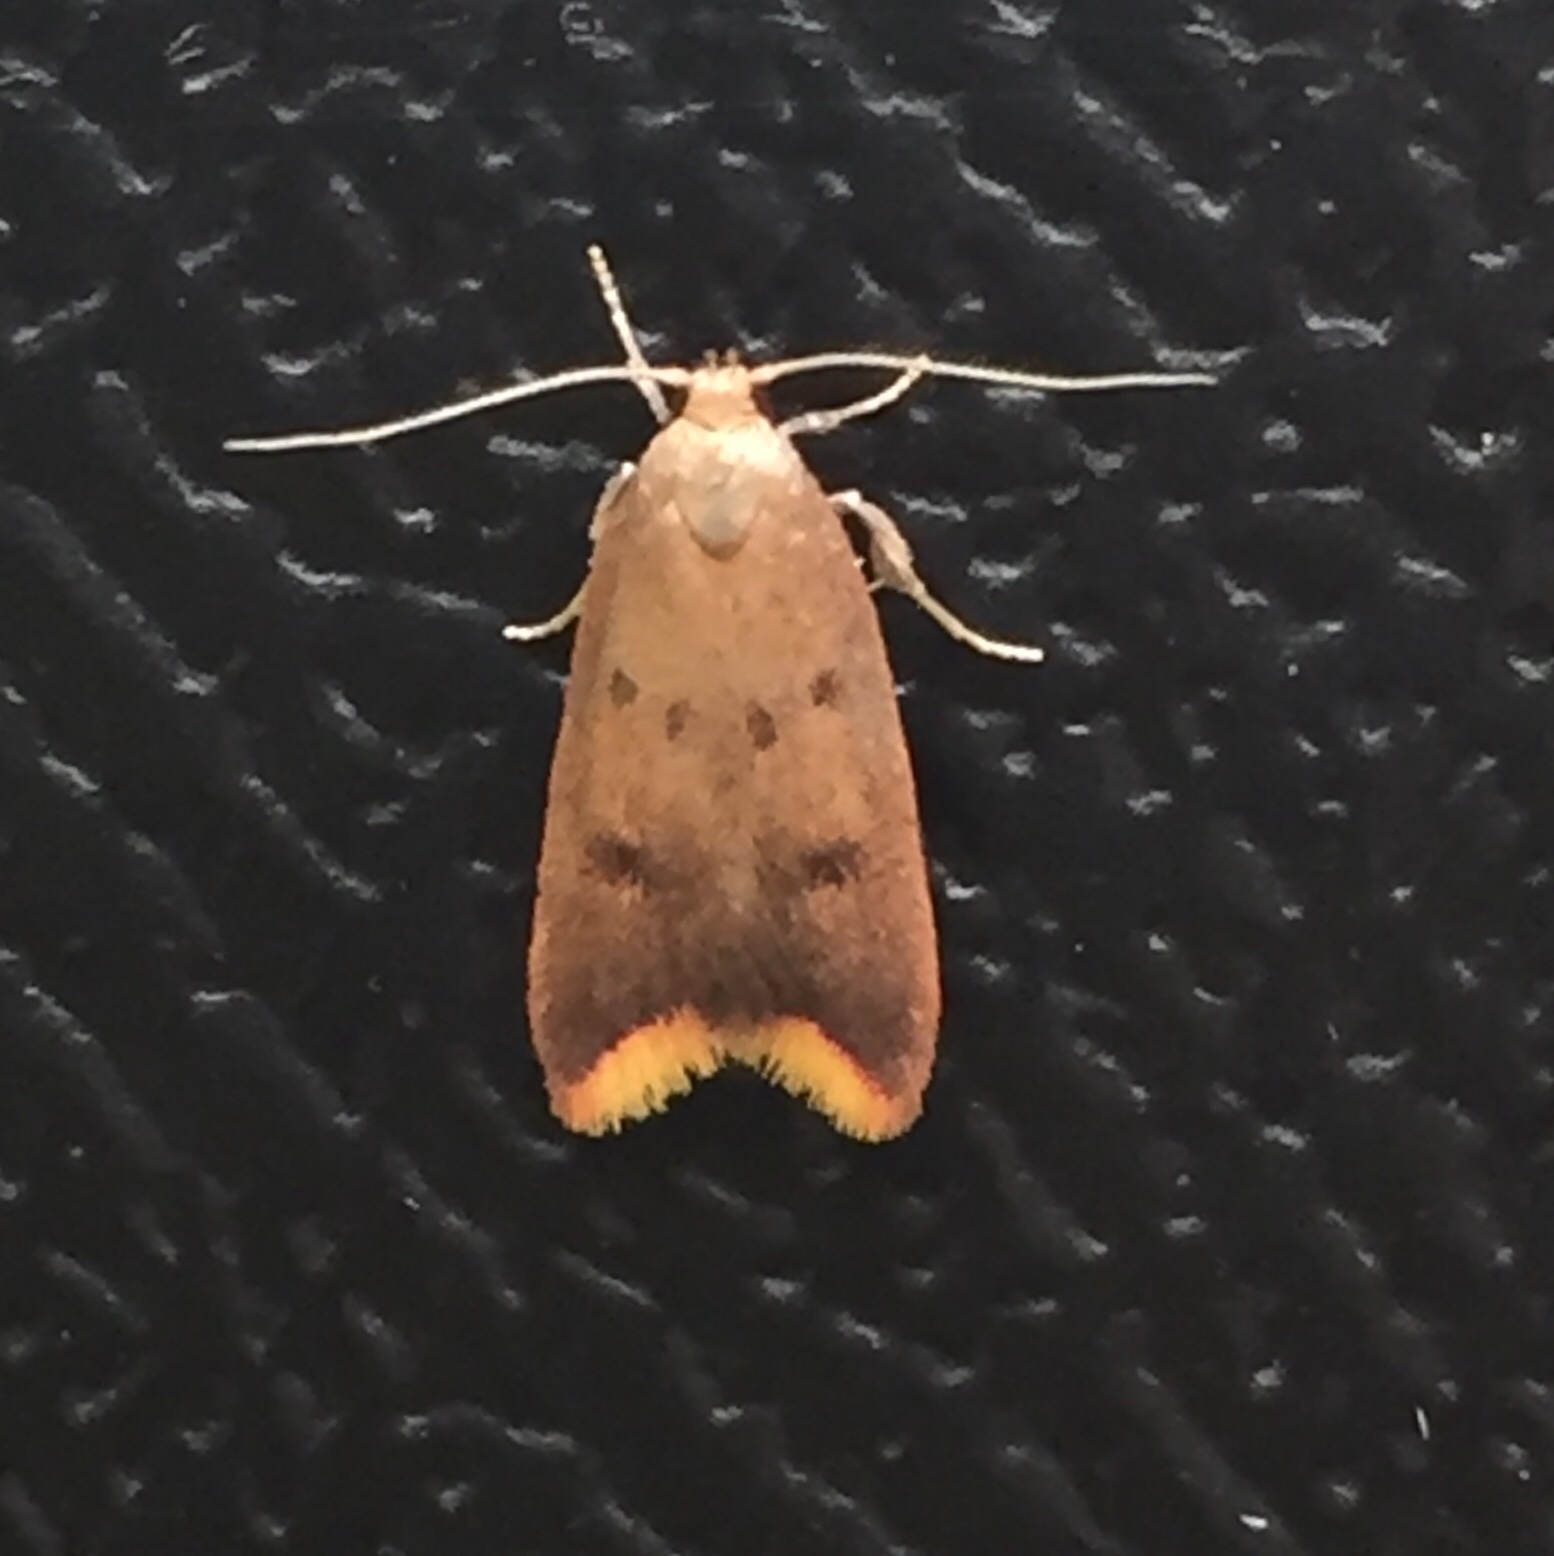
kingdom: Animalia
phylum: Arthropoda
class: Insecta
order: Lepidoptera
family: Oecophoridae
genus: Tachystola
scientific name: Tachystola acroxantha
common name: Ruddy streak
